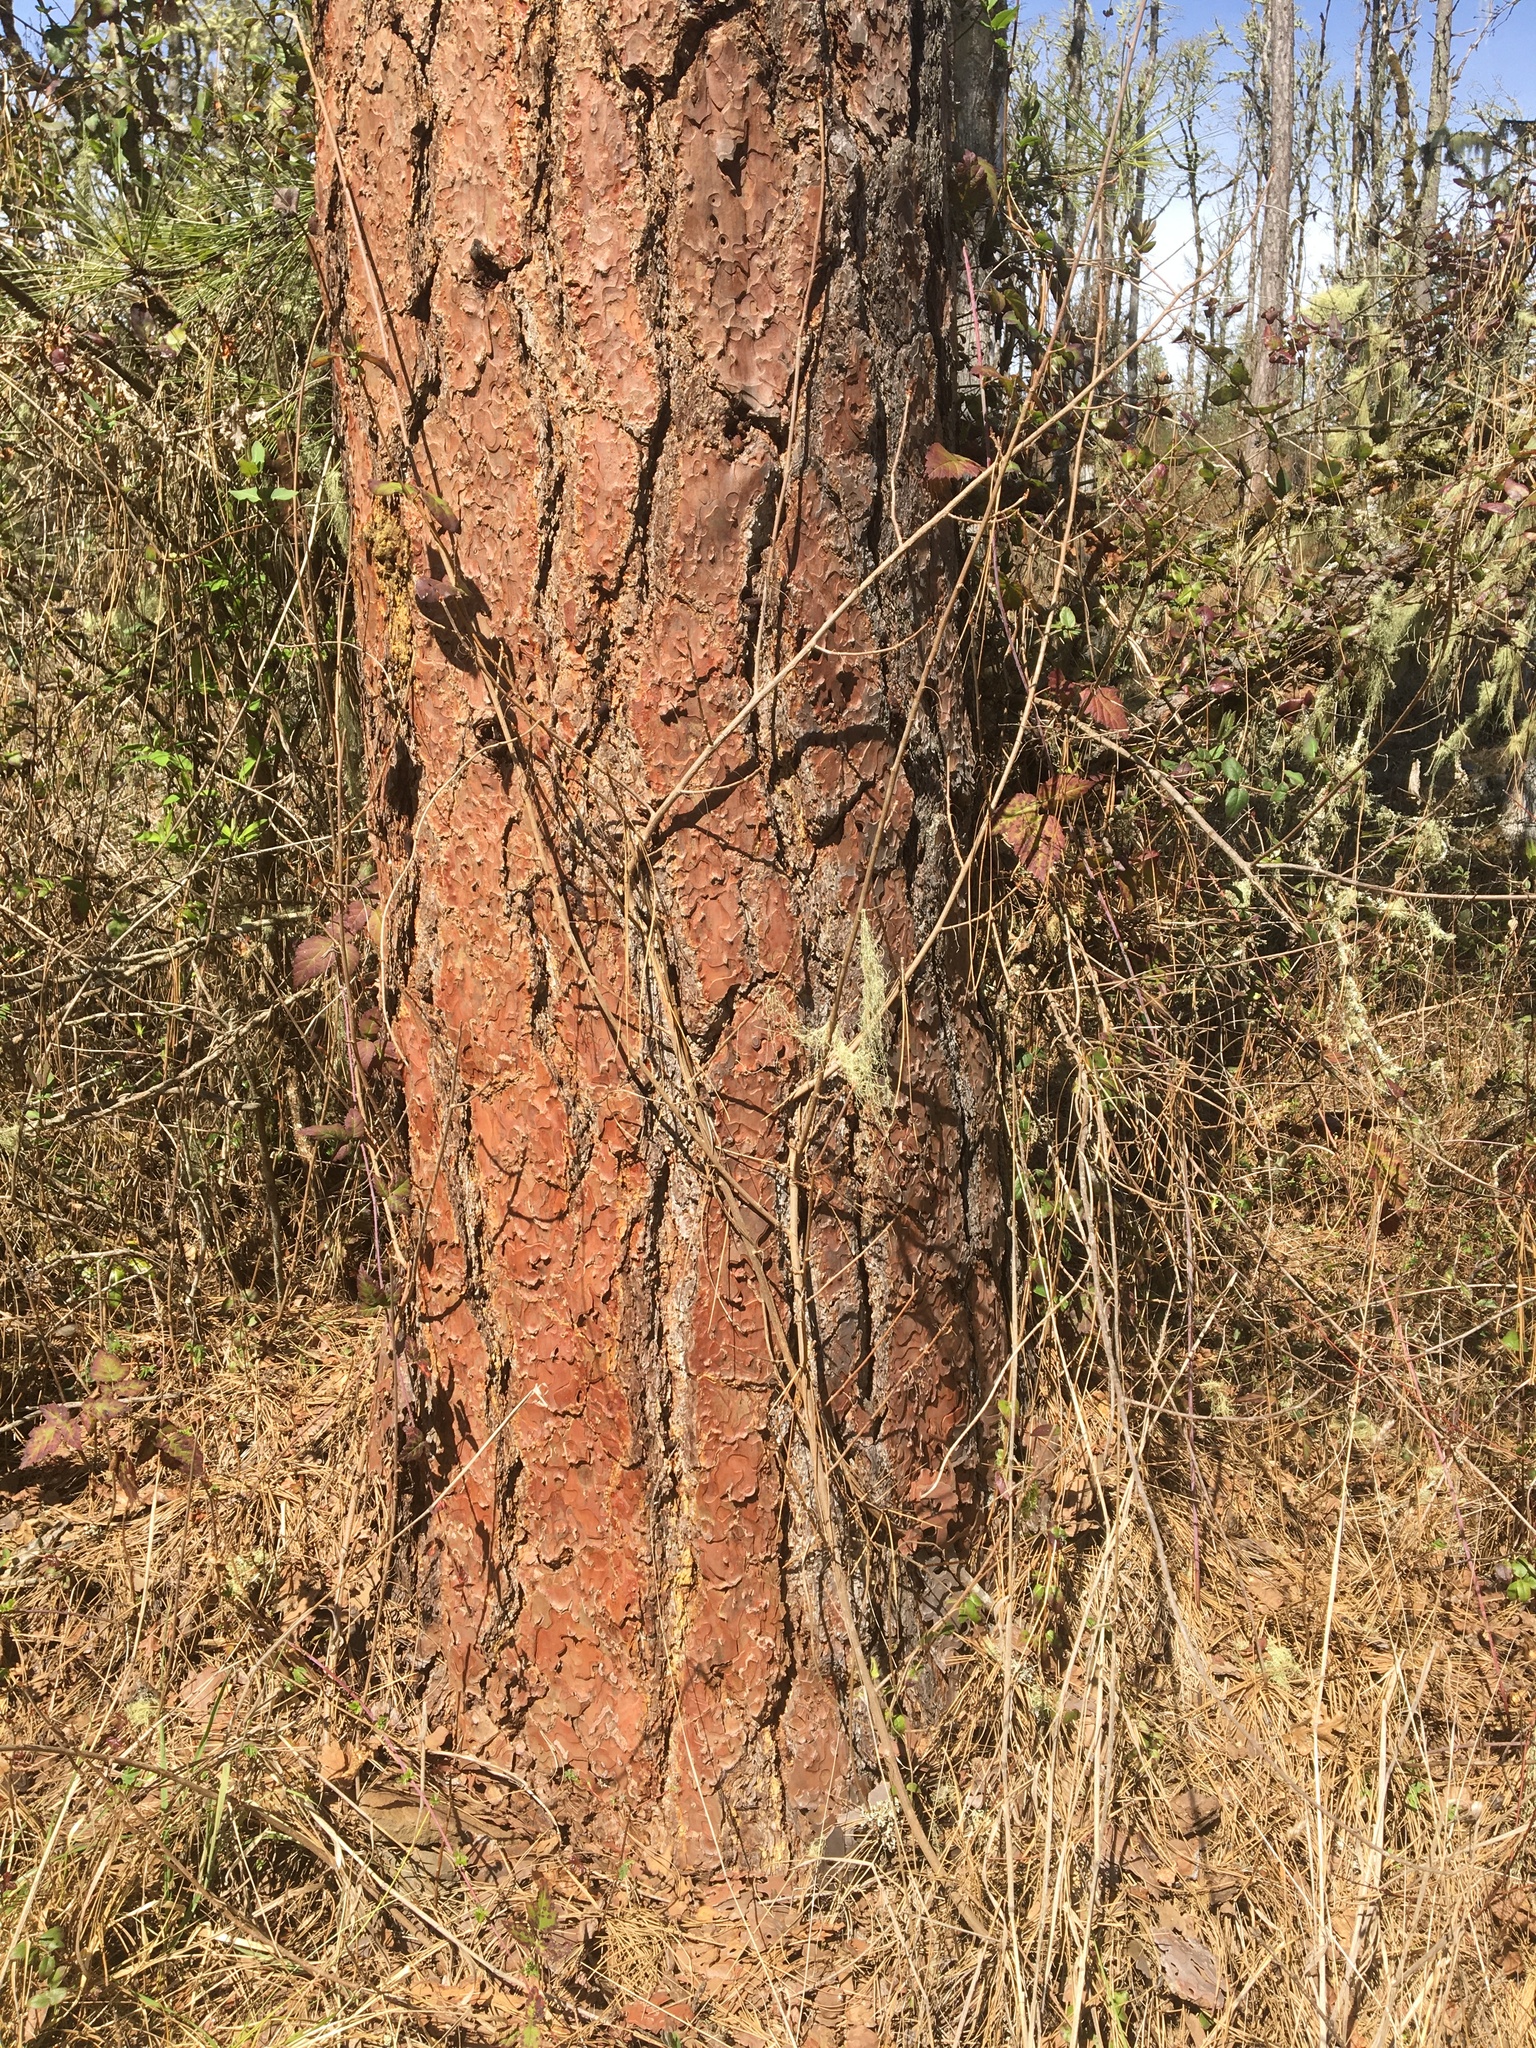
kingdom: Plantae
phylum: Tracheophyta
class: Magnoliopsida
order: Sapindales
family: Anacardiaceae
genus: Toxicodendron
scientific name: Toxicodendron diversilobum
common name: Pacific poison-oak
